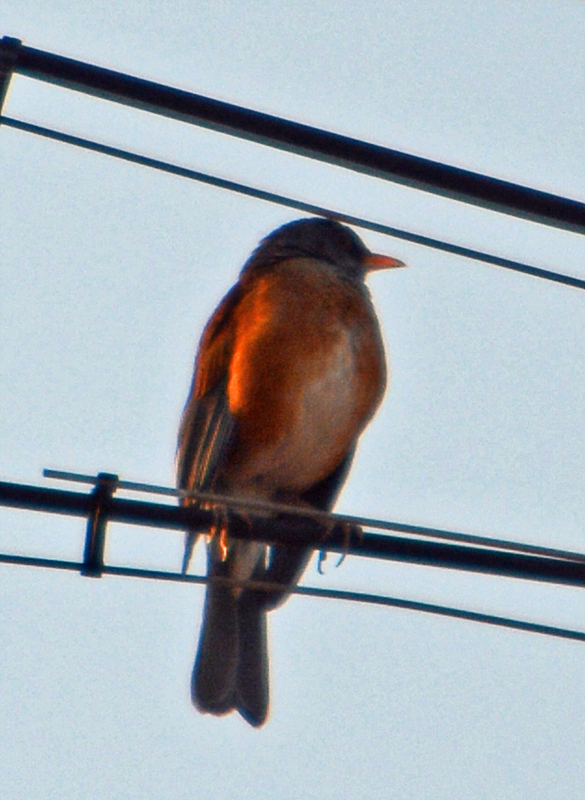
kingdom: Animalia
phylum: Chordata
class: Aves
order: Passeriformes
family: Turdidae
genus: Turdus
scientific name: Turdus rufopalliatus
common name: Rufous-backed robin
